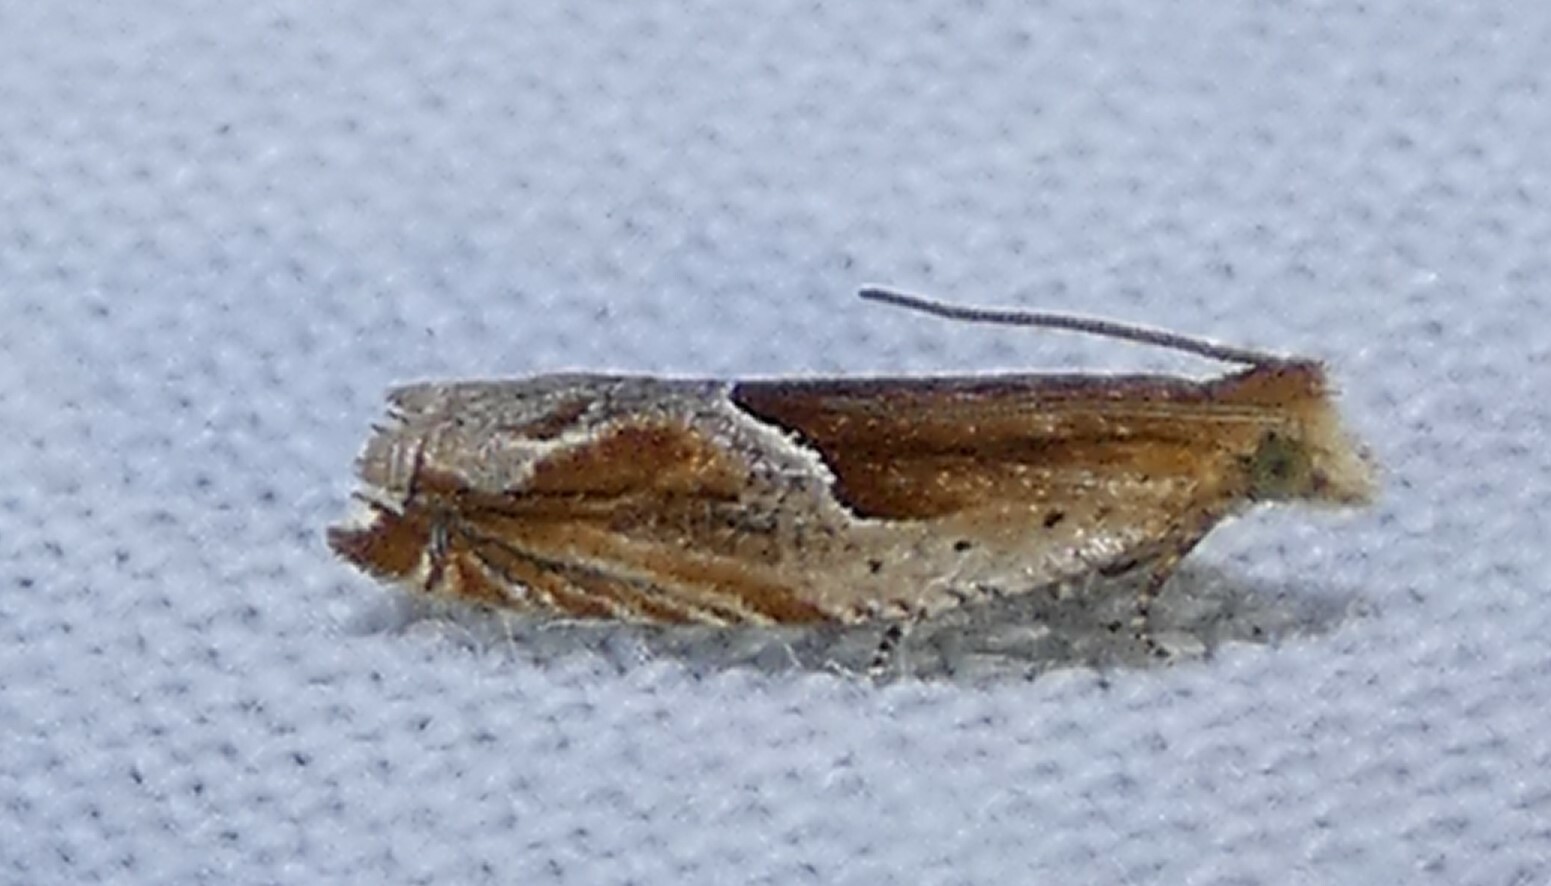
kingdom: Animalia
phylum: Arthropoda
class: Insecta
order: Lepidoptera
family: Tortricidae
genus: Ancylis
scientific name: Ancylis comptana
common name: Little roller
